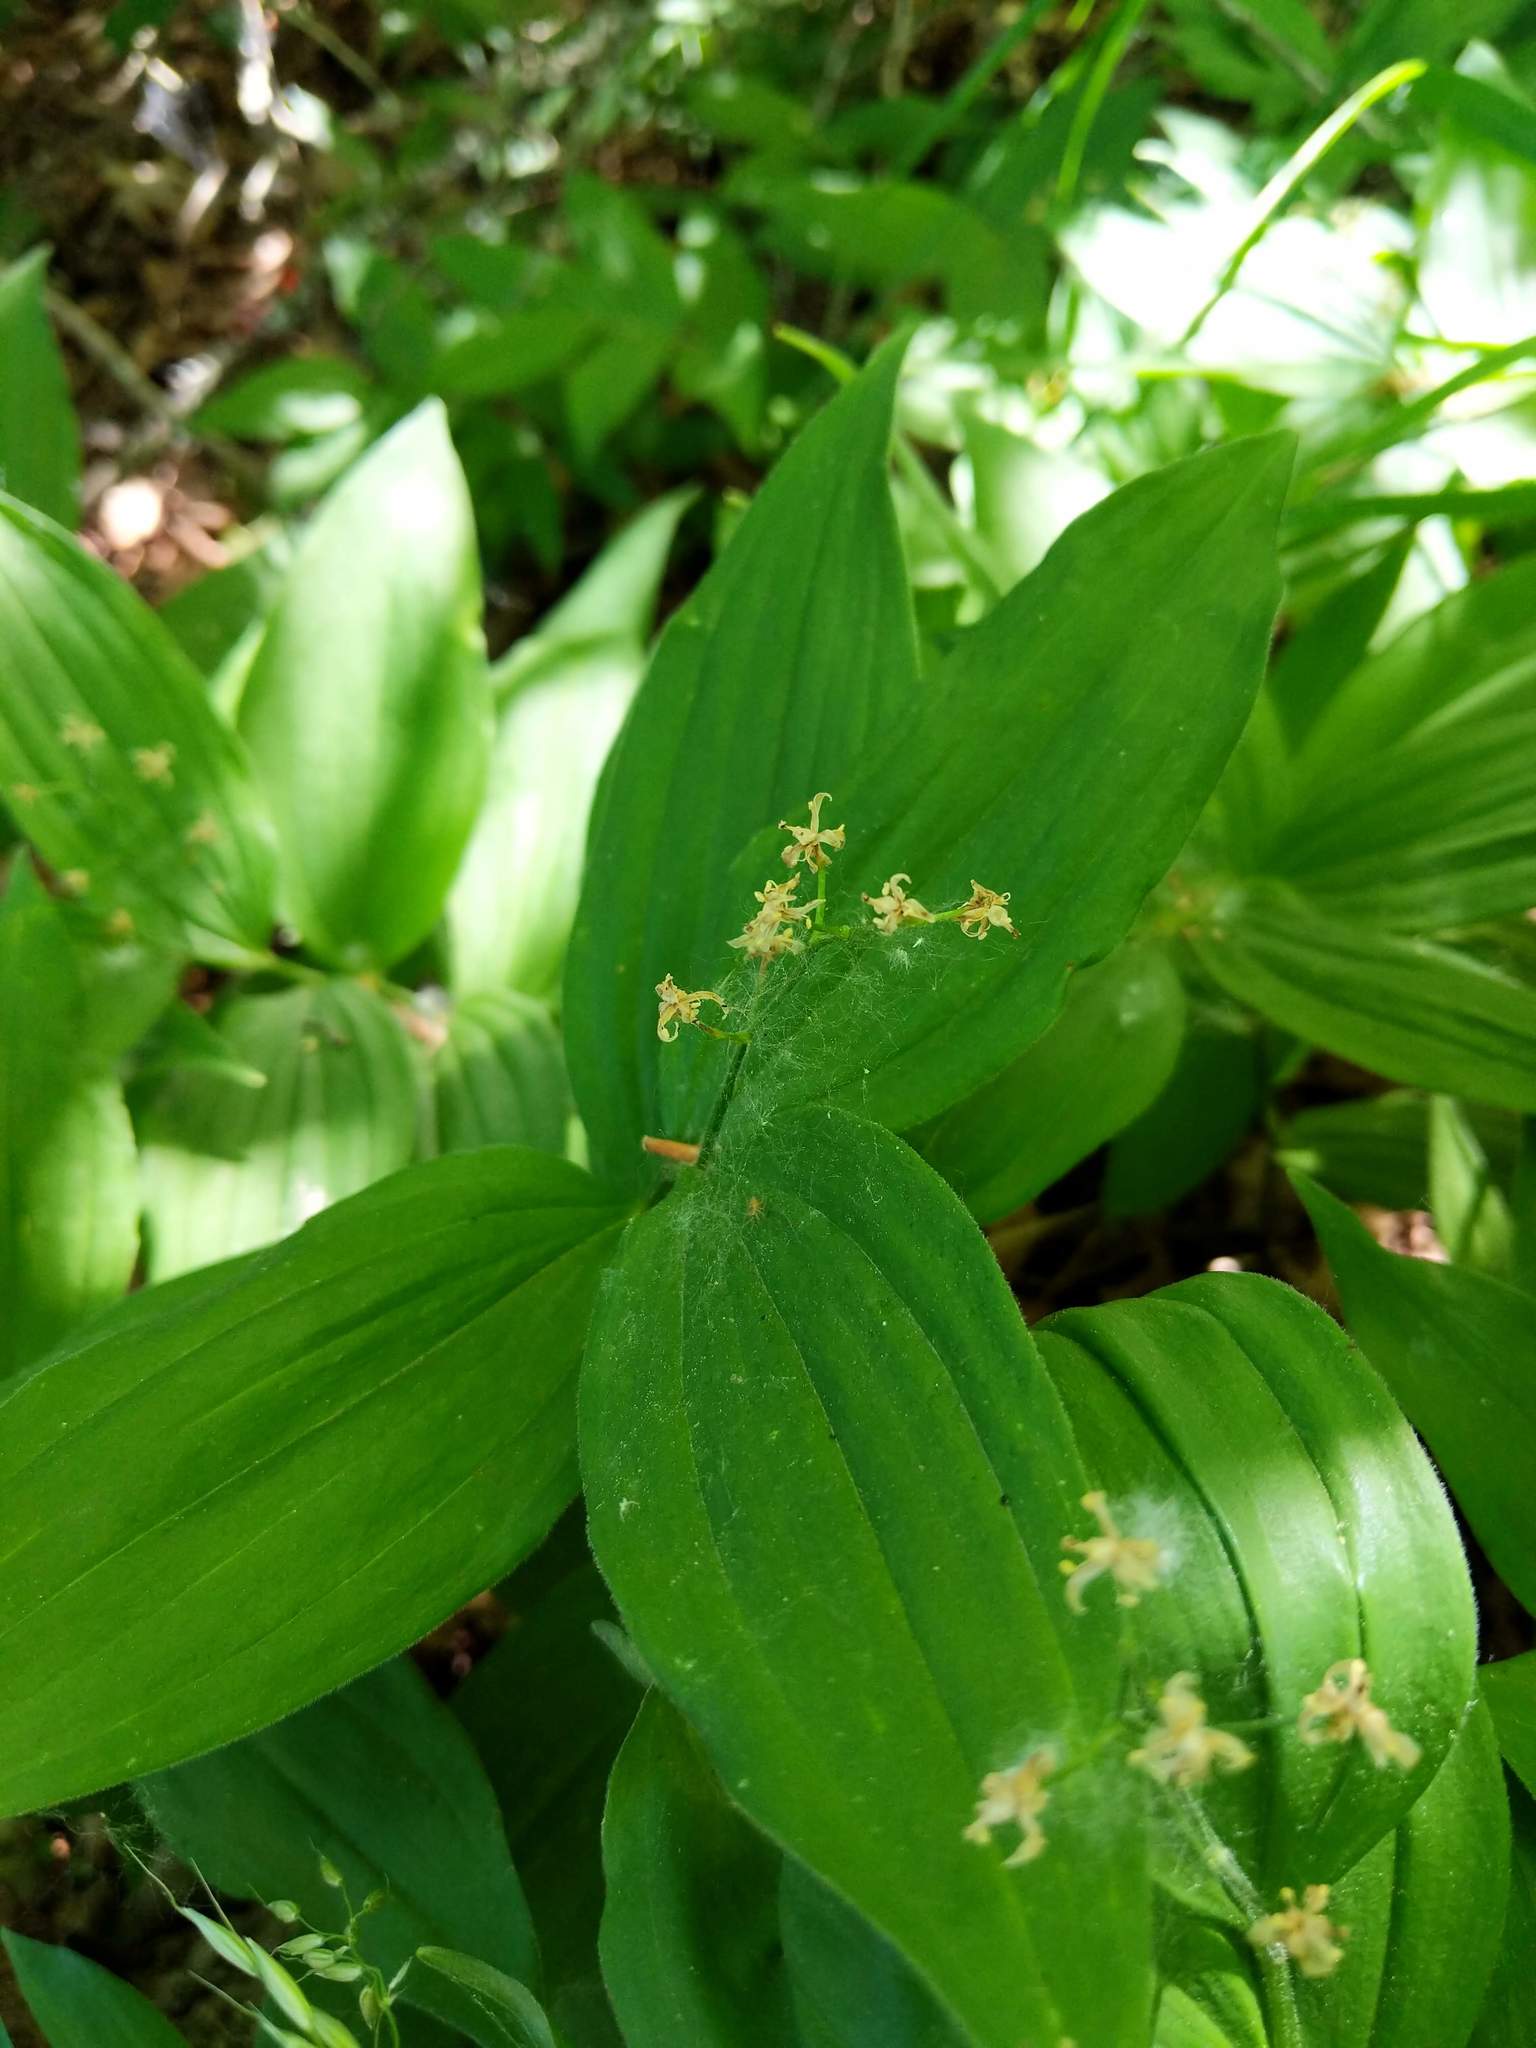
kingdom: Plantae
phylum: Tracheophyta
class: Liliopsida
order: Asparagales
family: Asparagaceae
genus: Maianthemum
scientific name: Maianthemum stellatum
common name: Little false solomon's seal
